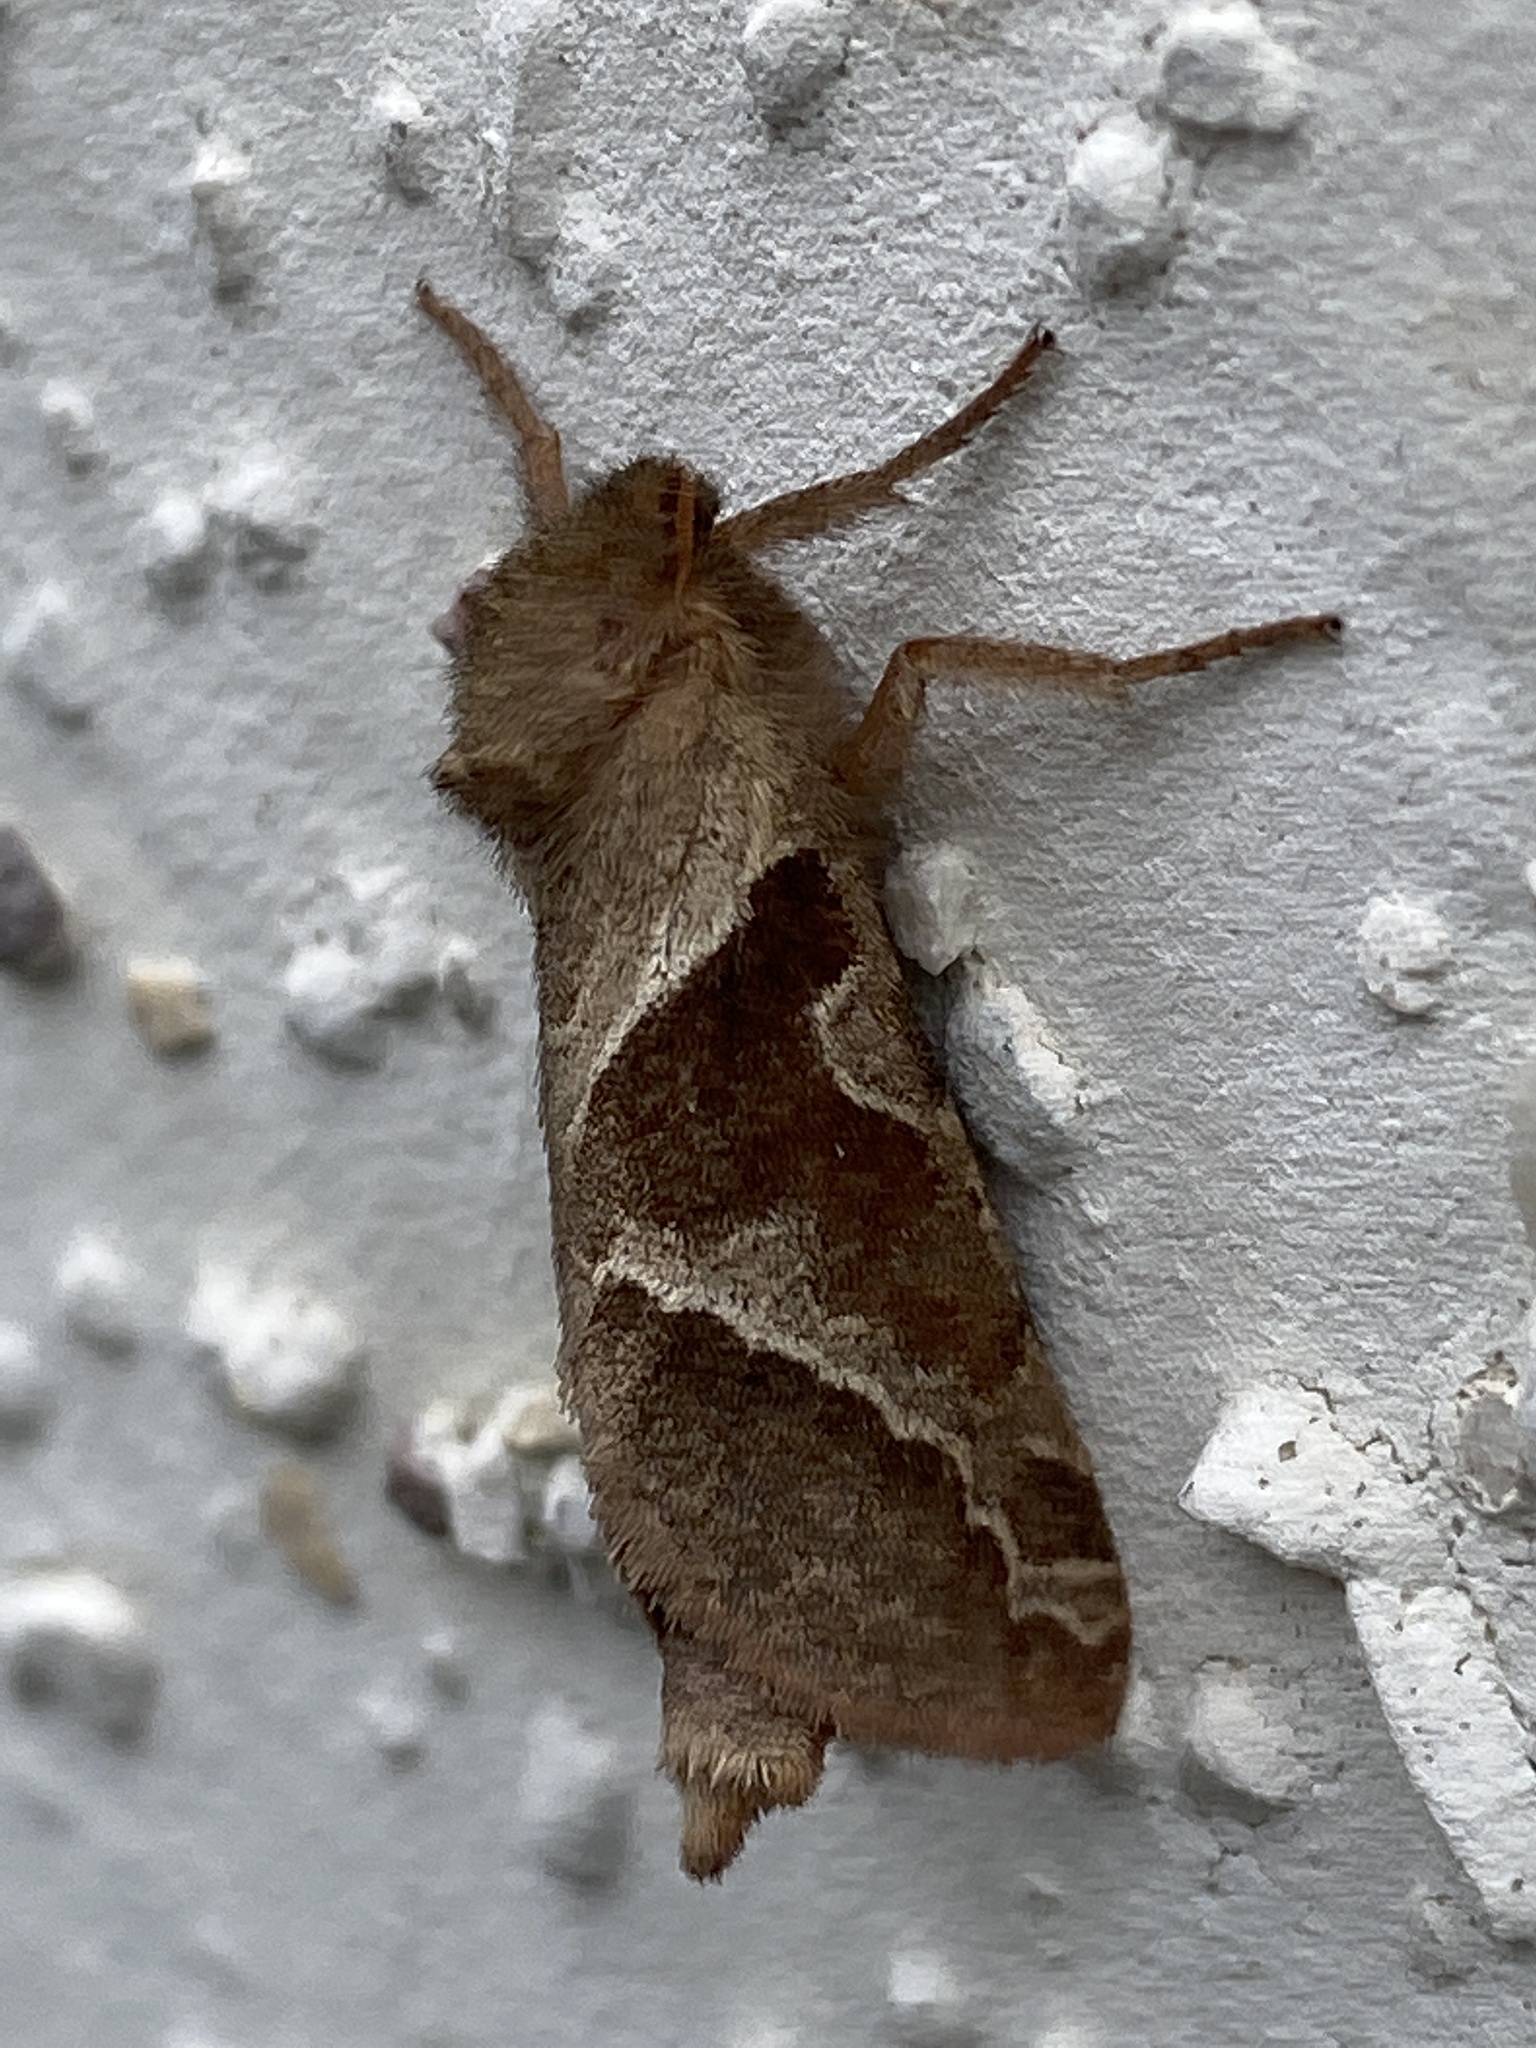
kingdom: Animalia
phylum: Arthropoda
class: Insecta
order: Lepidoptera
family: Hepialidae
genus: Triodia
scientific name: Triodia sylvina
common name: Orange swift
